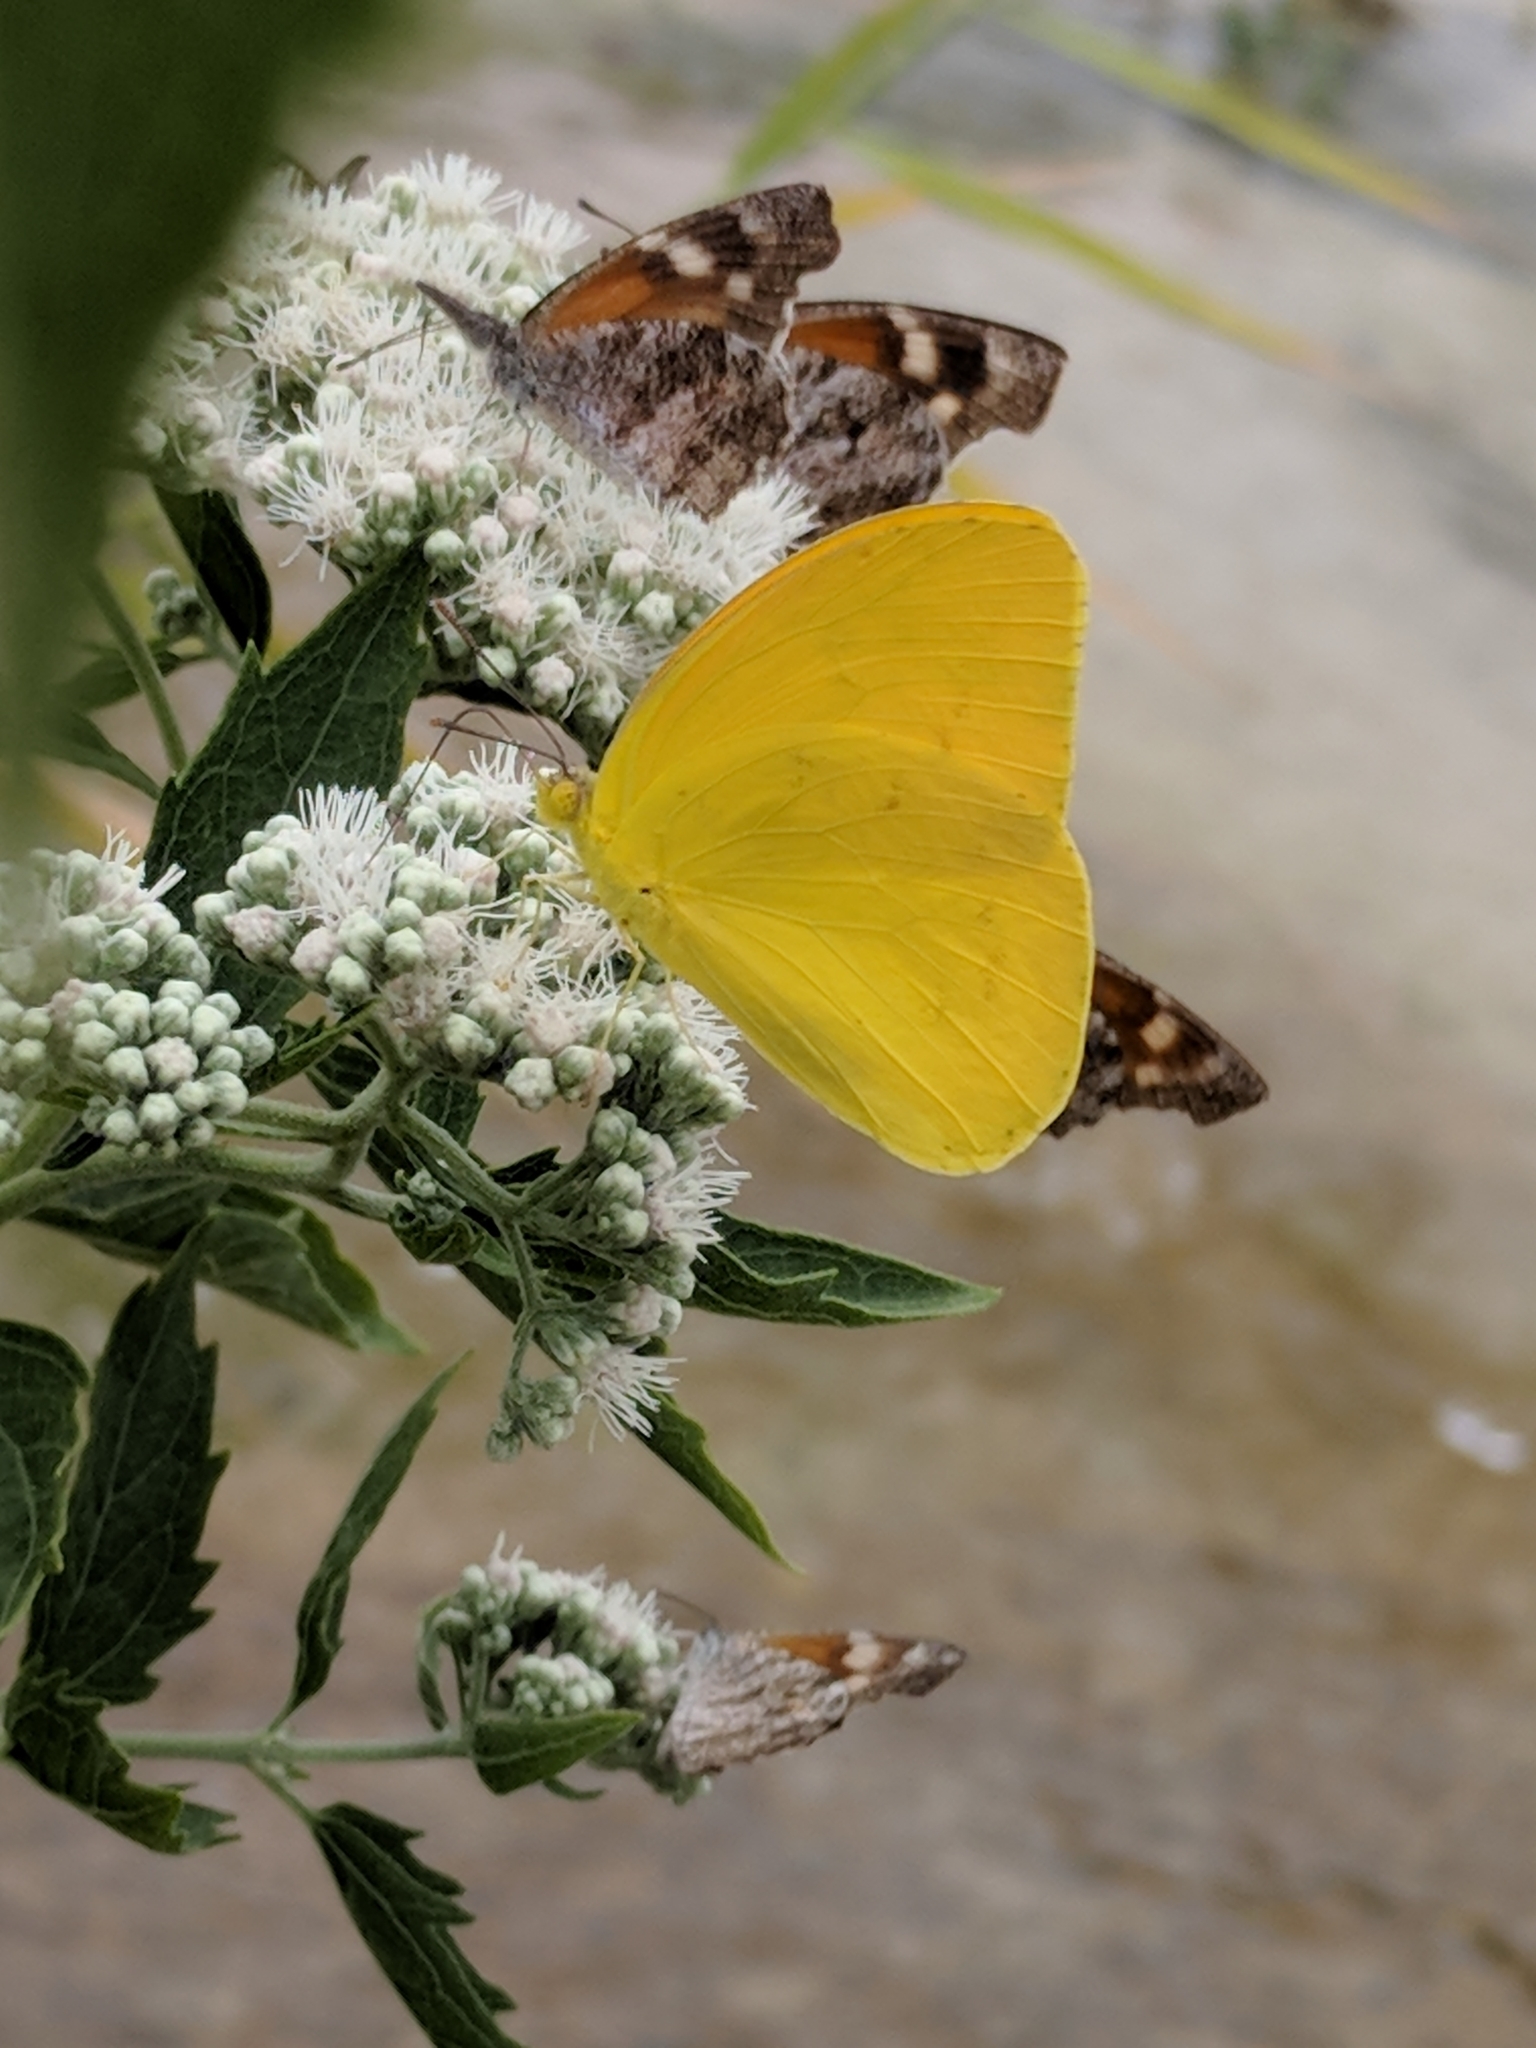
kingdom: Animalia
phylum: Arthropoda
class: Insecta
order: Lepidoptera
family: Pieridae
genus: Phoebis
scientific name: Phoebis agarithe
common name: Large orange sulphur
